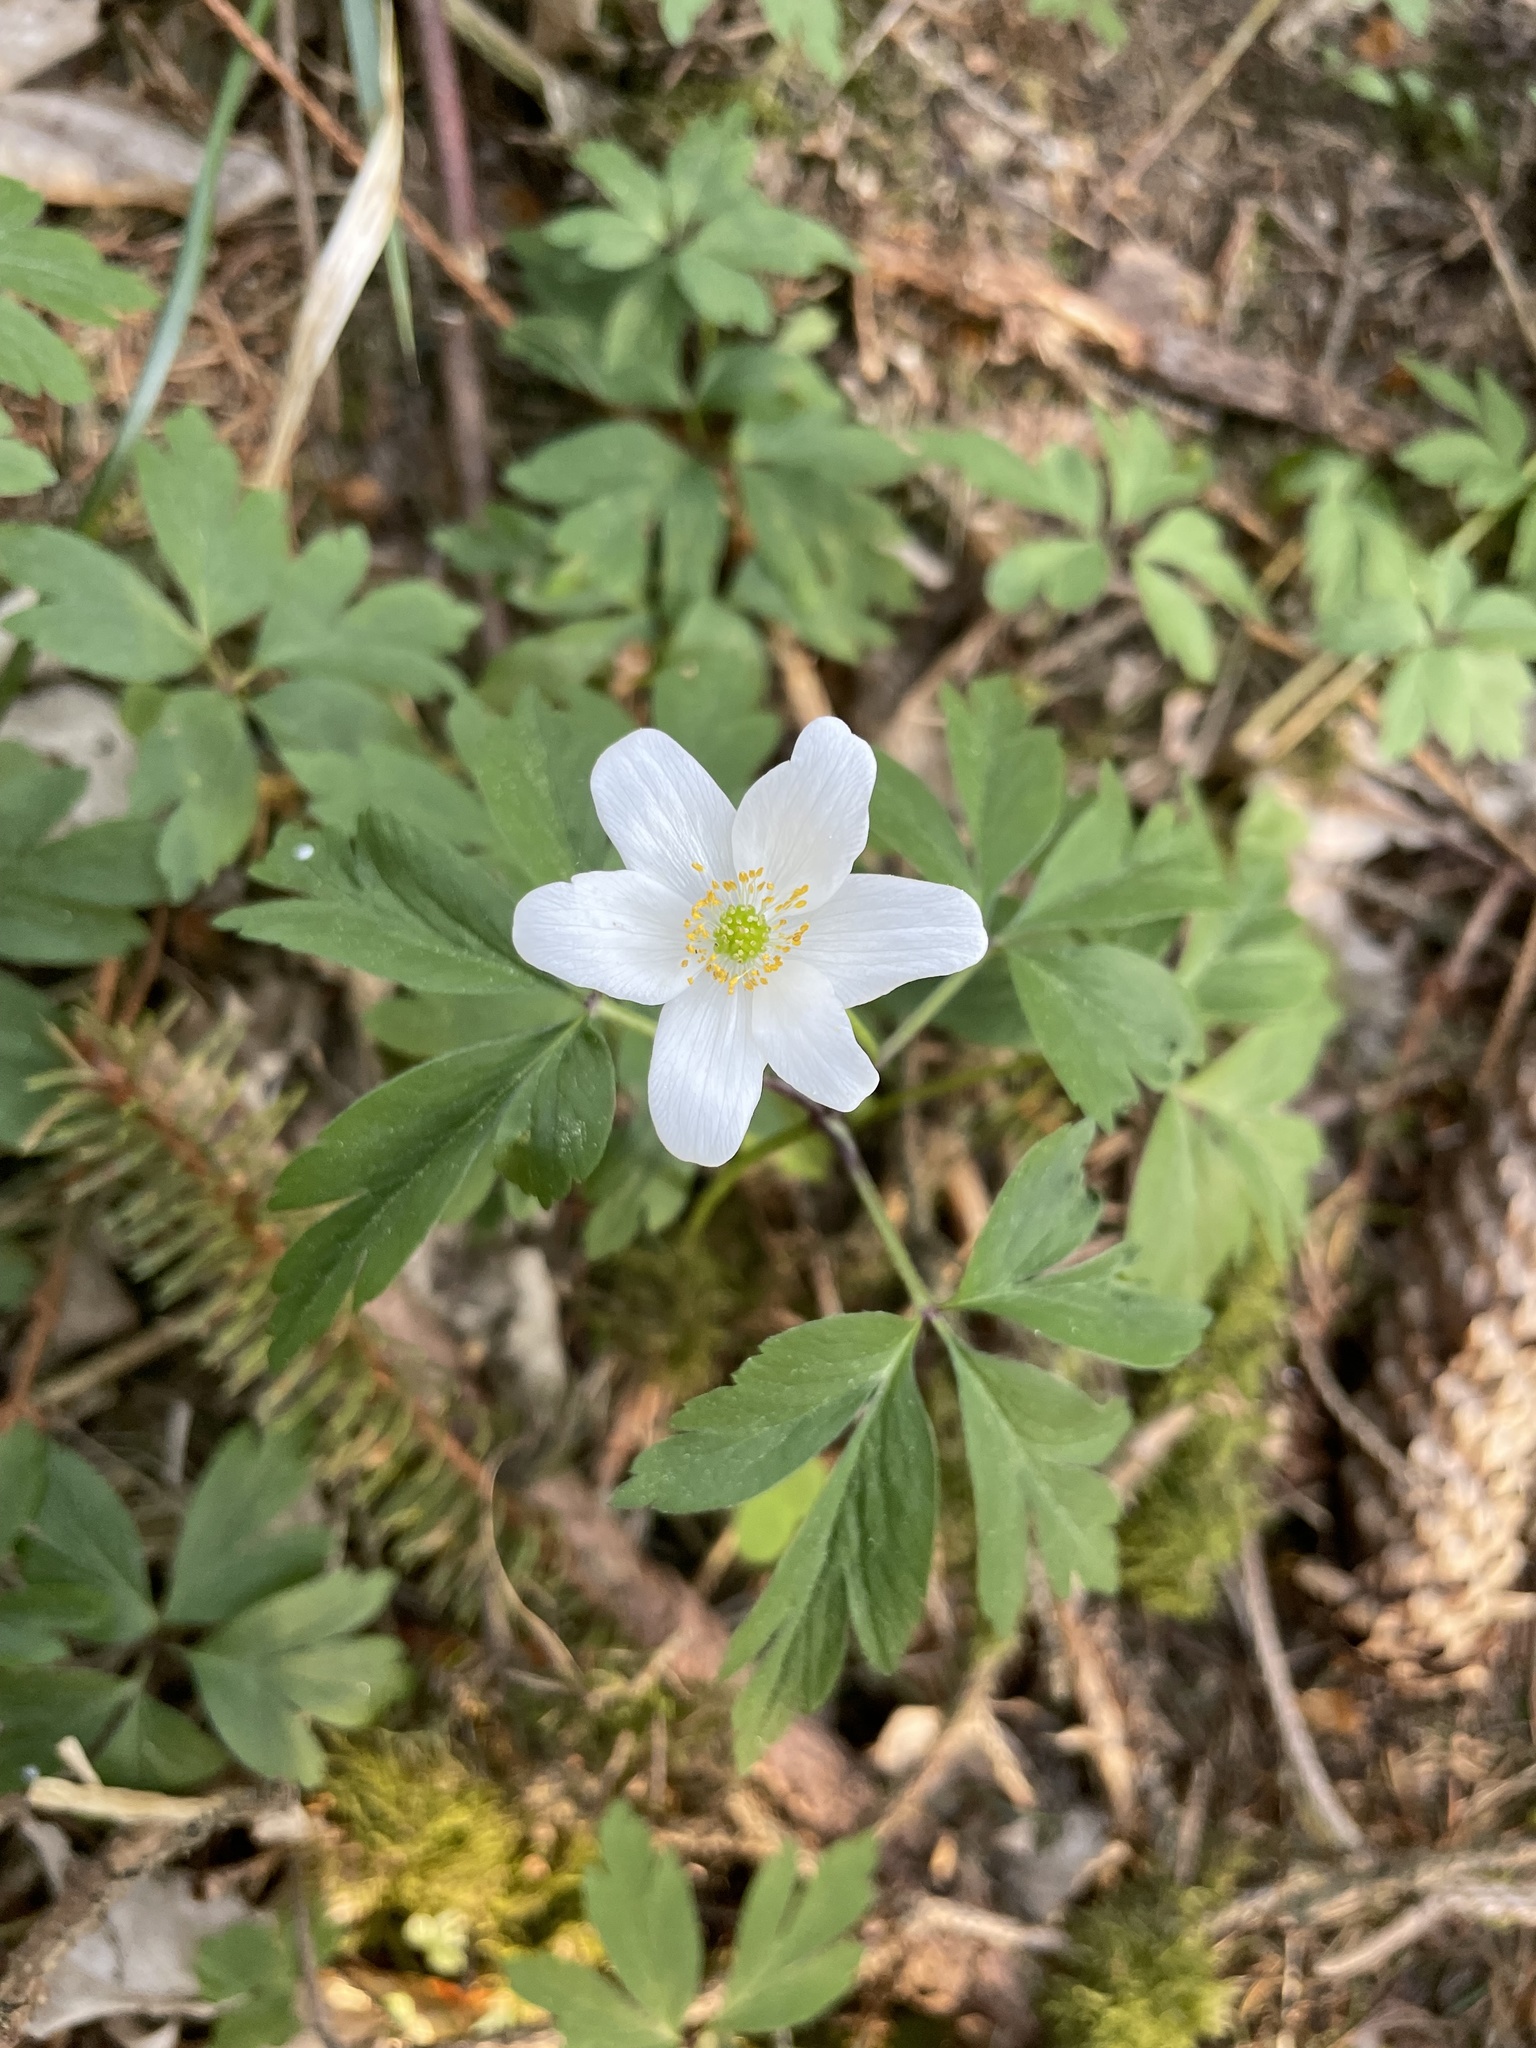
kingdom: Plantae
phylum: Tracheophyta
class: Magnoliopsida
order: Ranunculales
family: Ranunculaceae
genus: Anemone
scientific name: Anemone nemorosa
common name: Wood anemone
